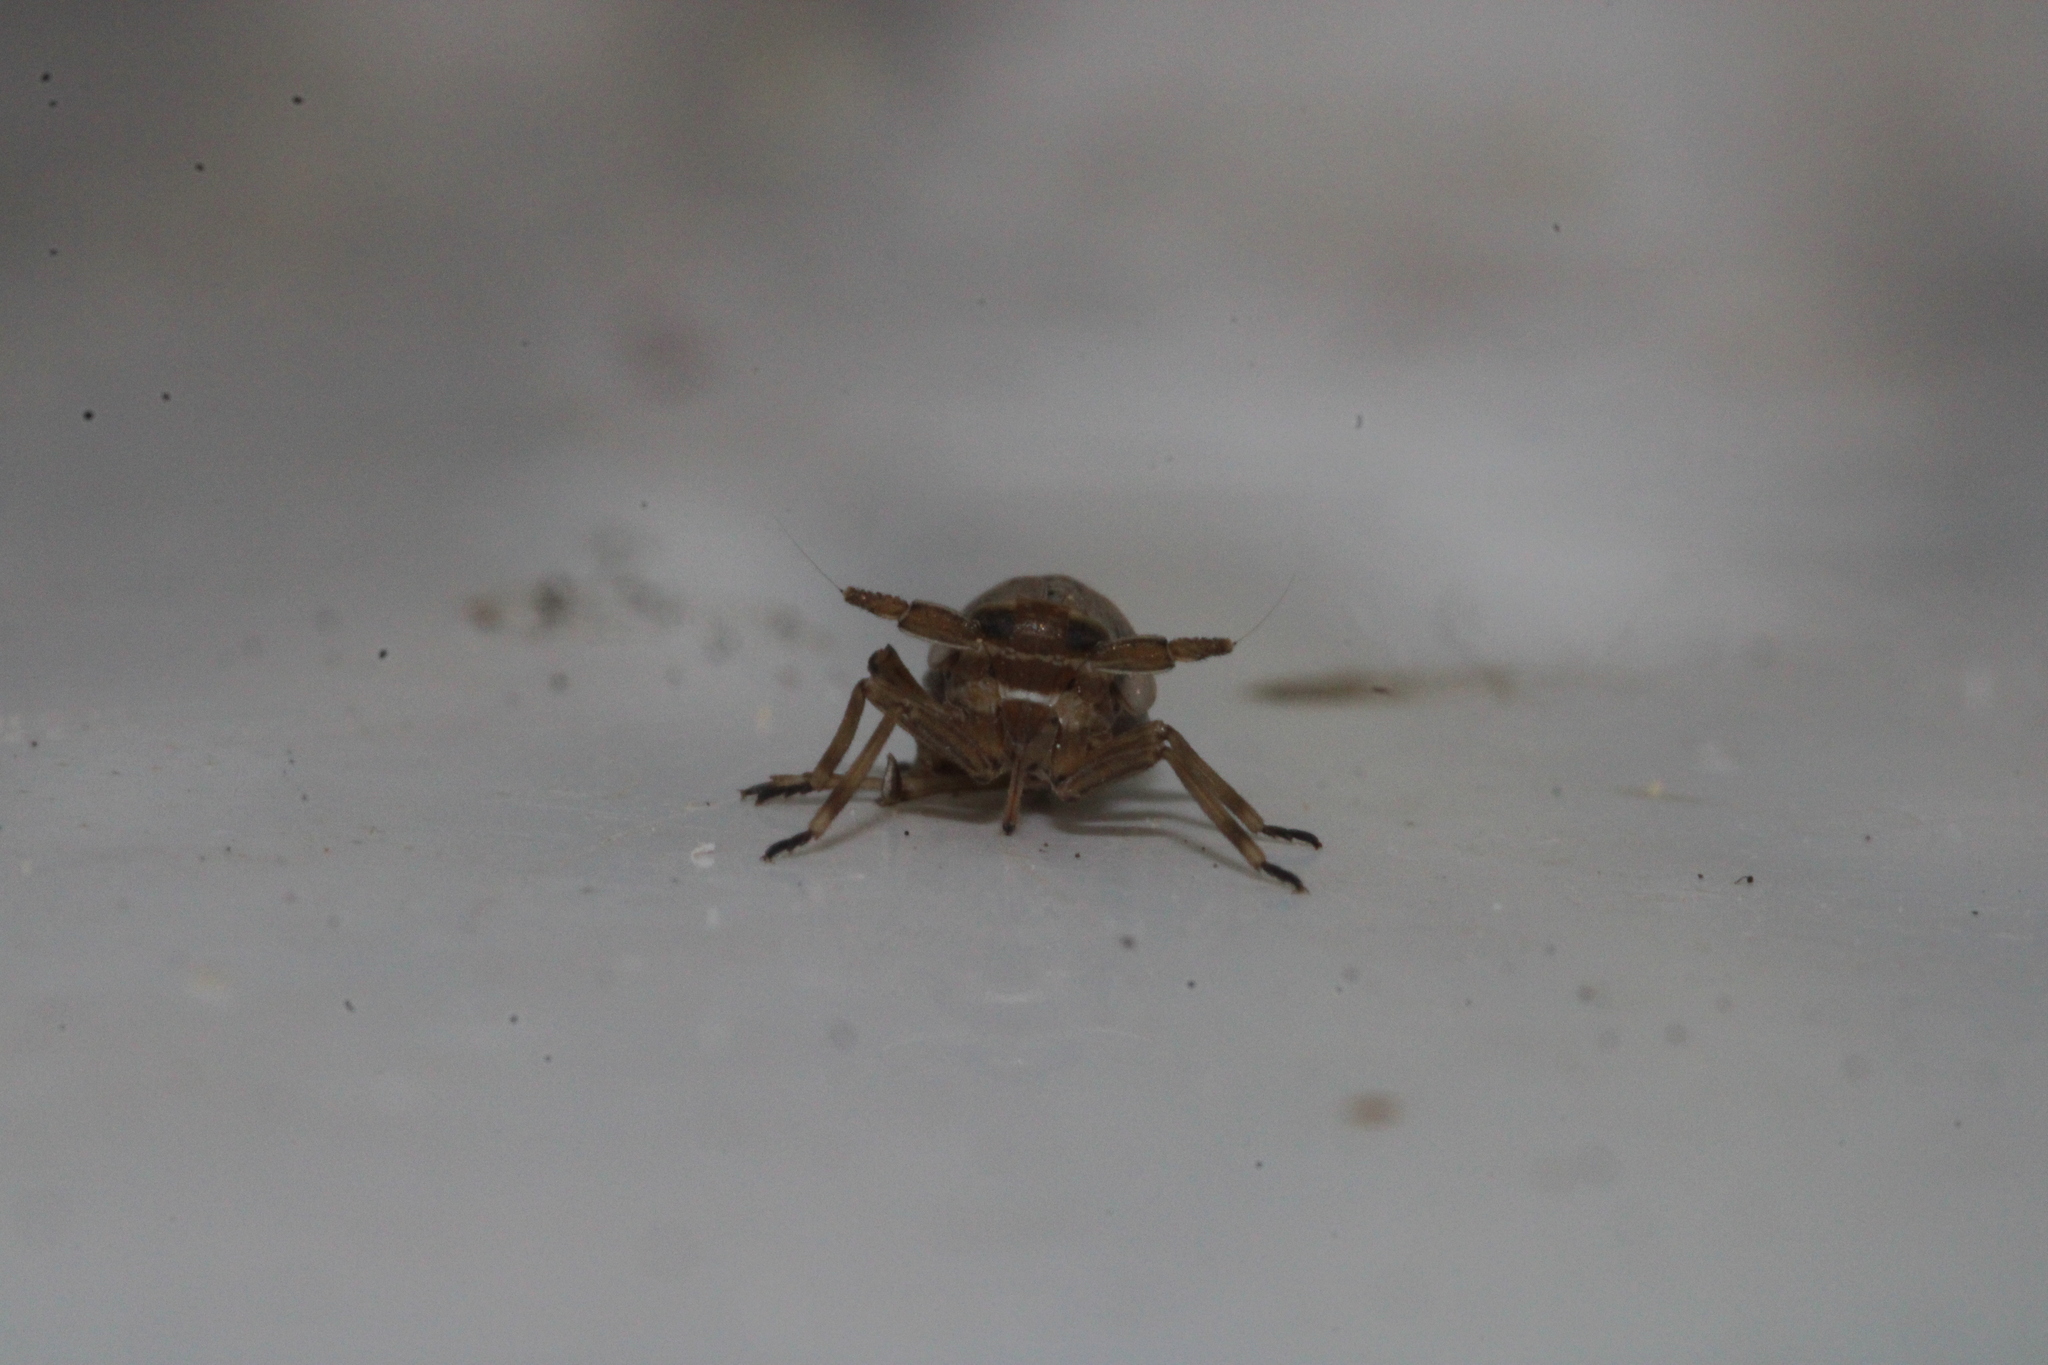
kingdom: Animalia
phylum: Arthropoda
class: Insecta
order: Hemiptera
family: Delphacidae
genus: Delphax
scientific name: Delphax crassicornis
